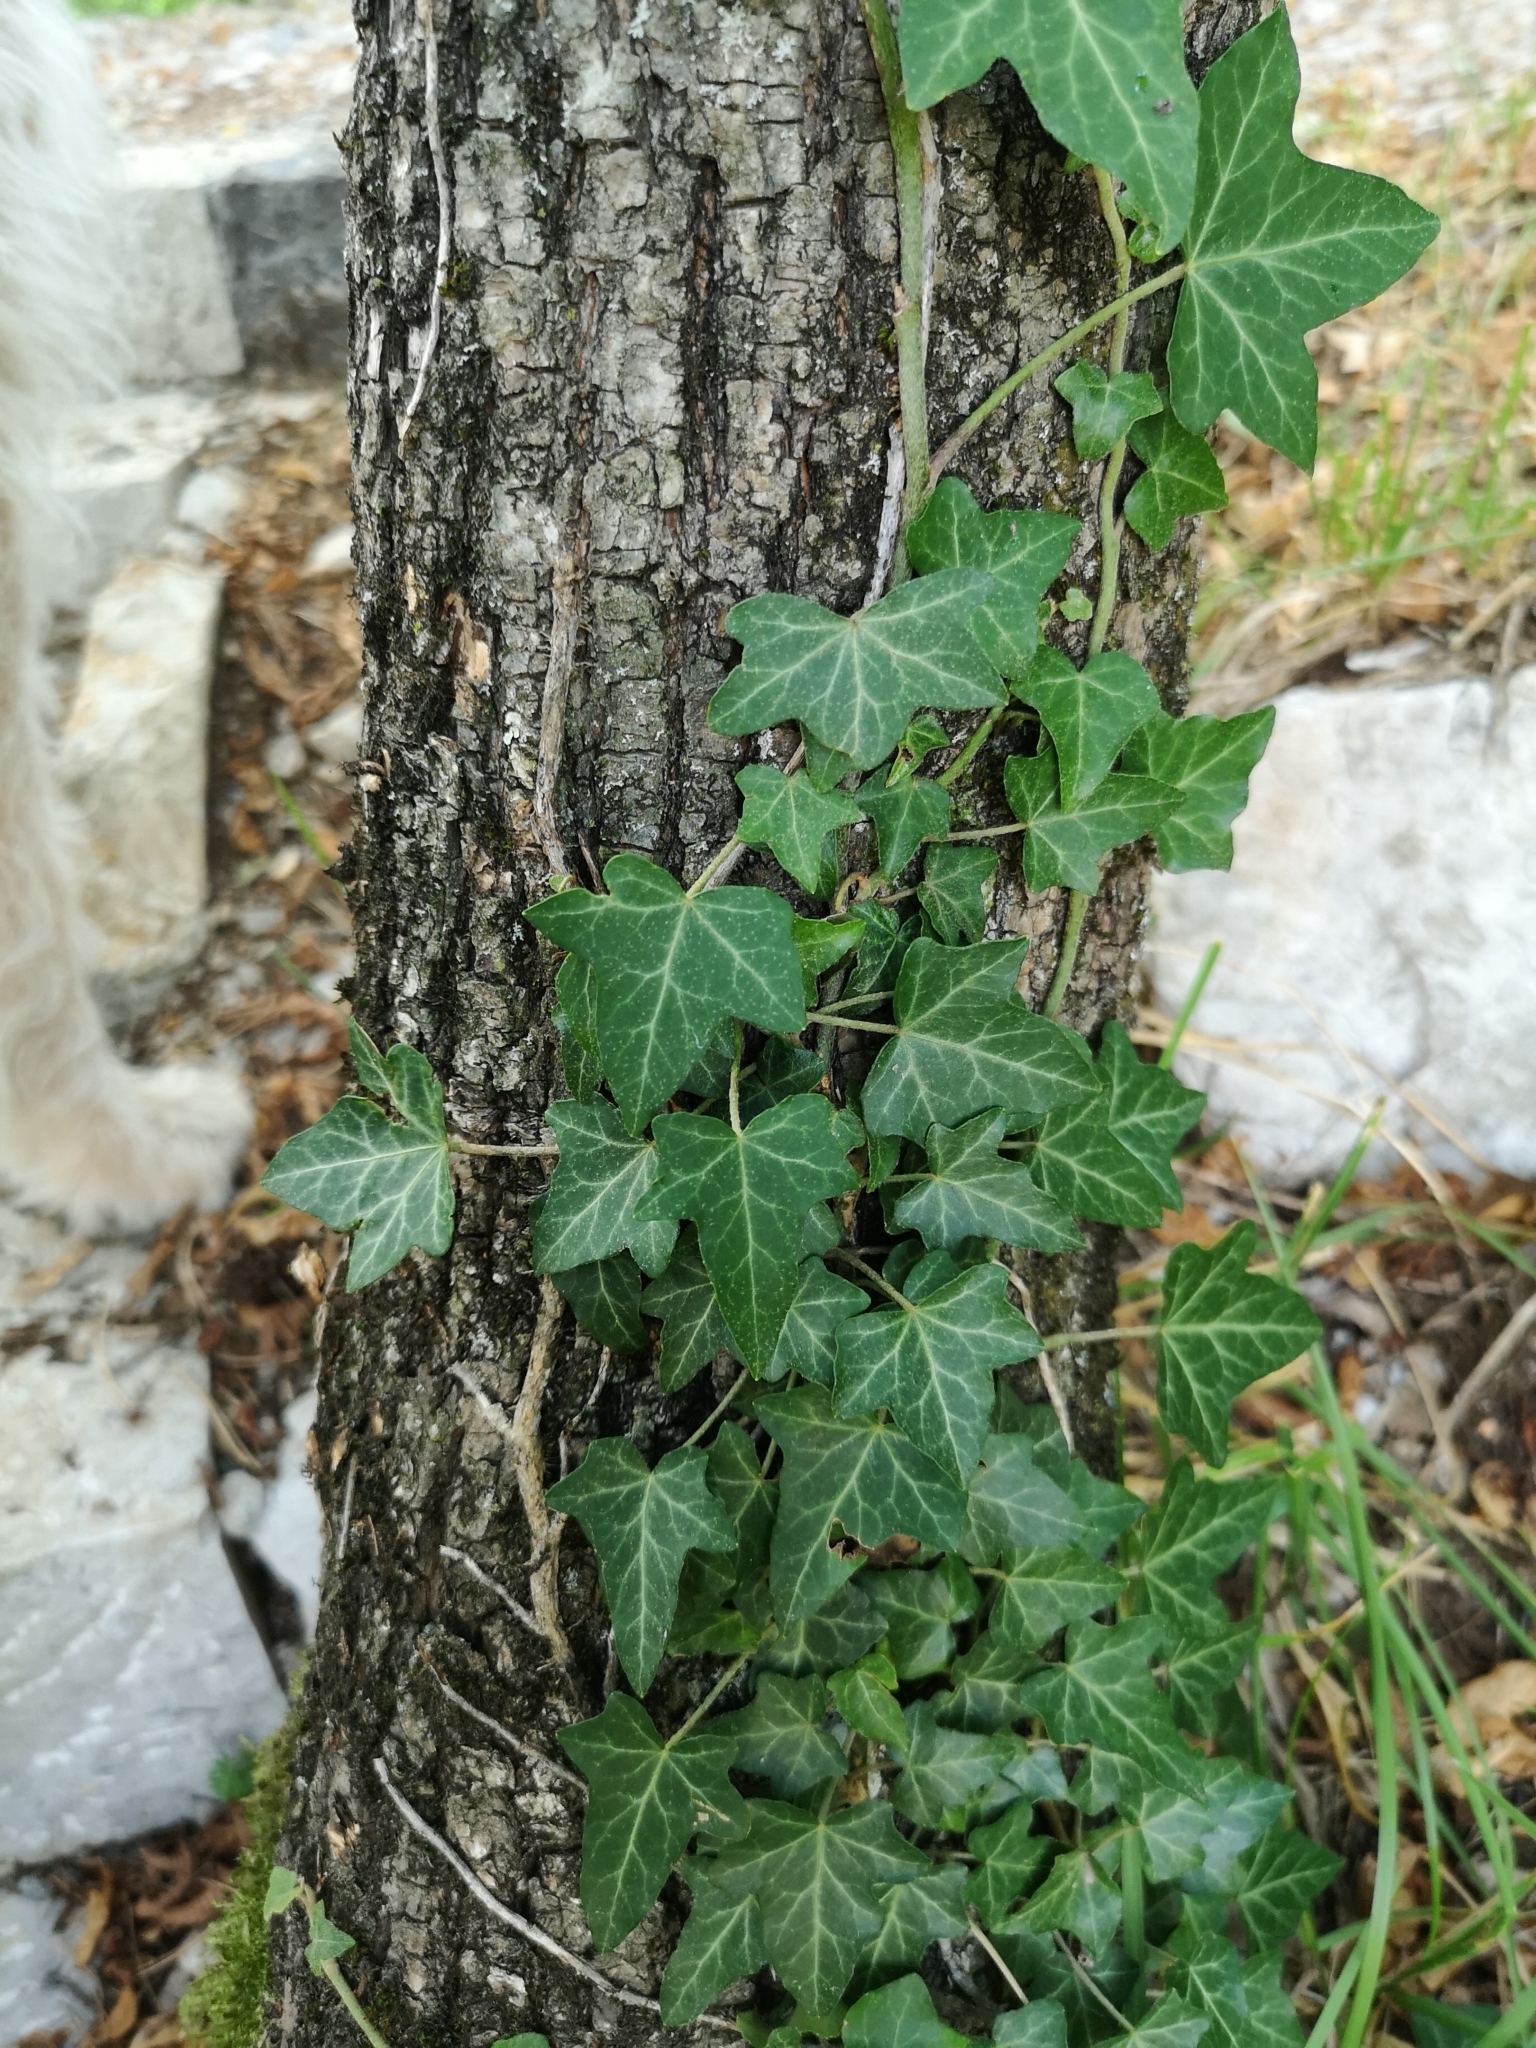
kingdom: Plantae
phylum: Tracheophyta
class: Magnoliopsida
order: Apiales
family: Araliaceae
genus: Hedera
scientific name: Hedera helix
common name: Ivy
